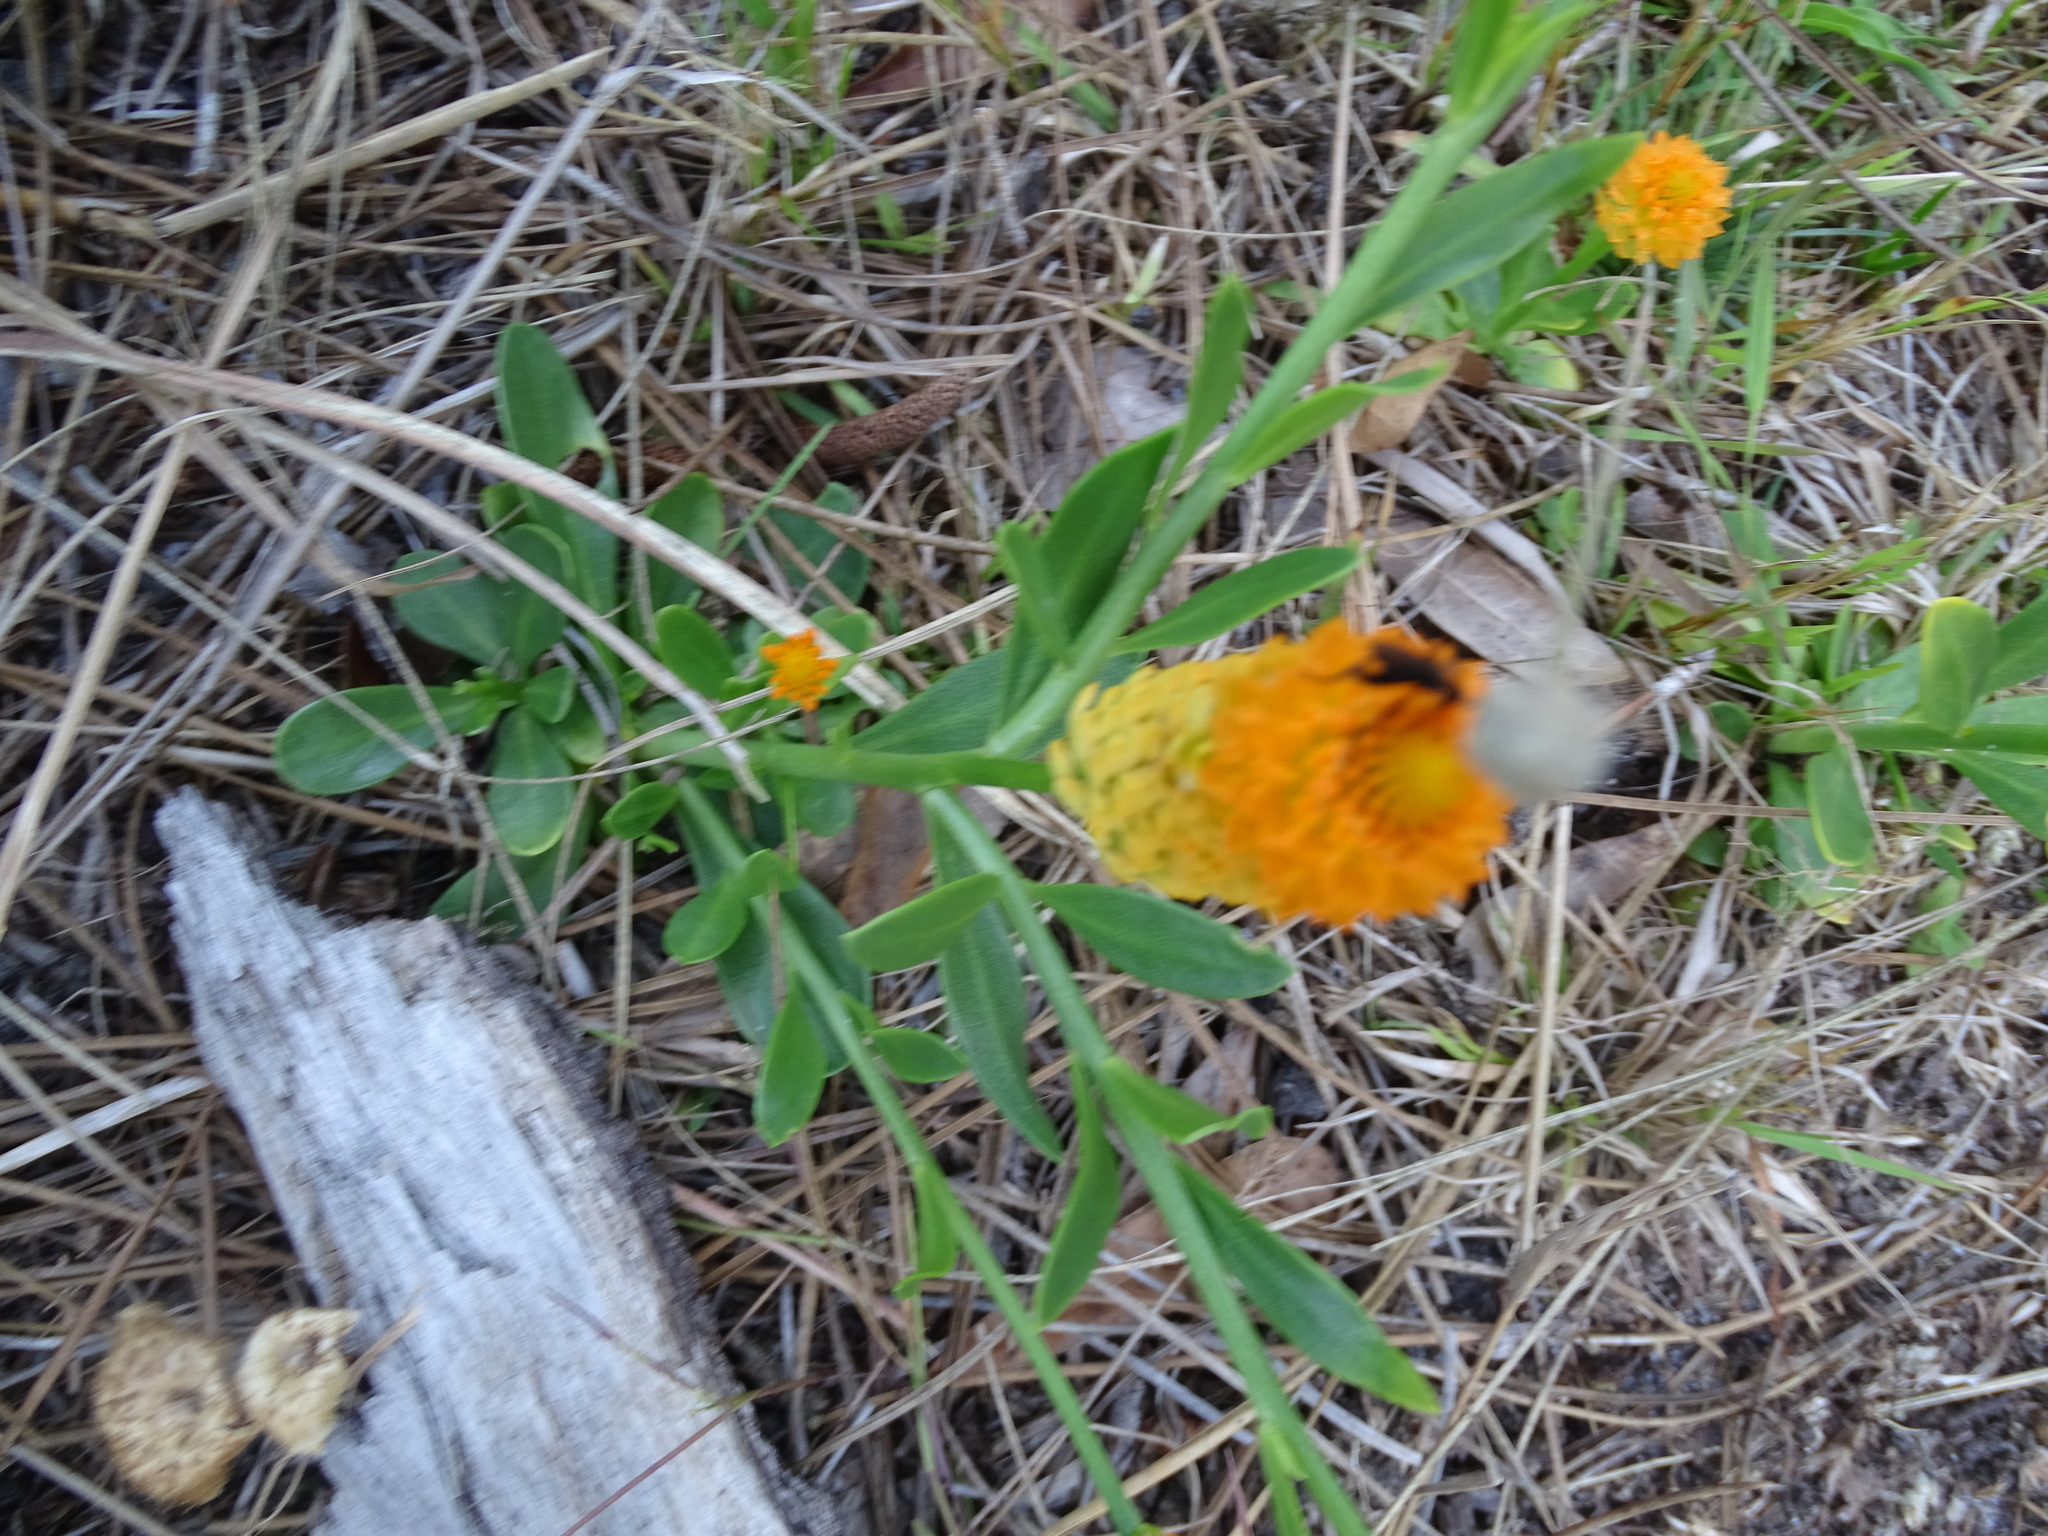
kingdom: Plantae
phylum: Tracheophyta
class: Magnoliopsida
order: Fabales
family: Polygalaceae
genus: Polygala
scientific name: Polygala lutea
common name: Orange milkwort
